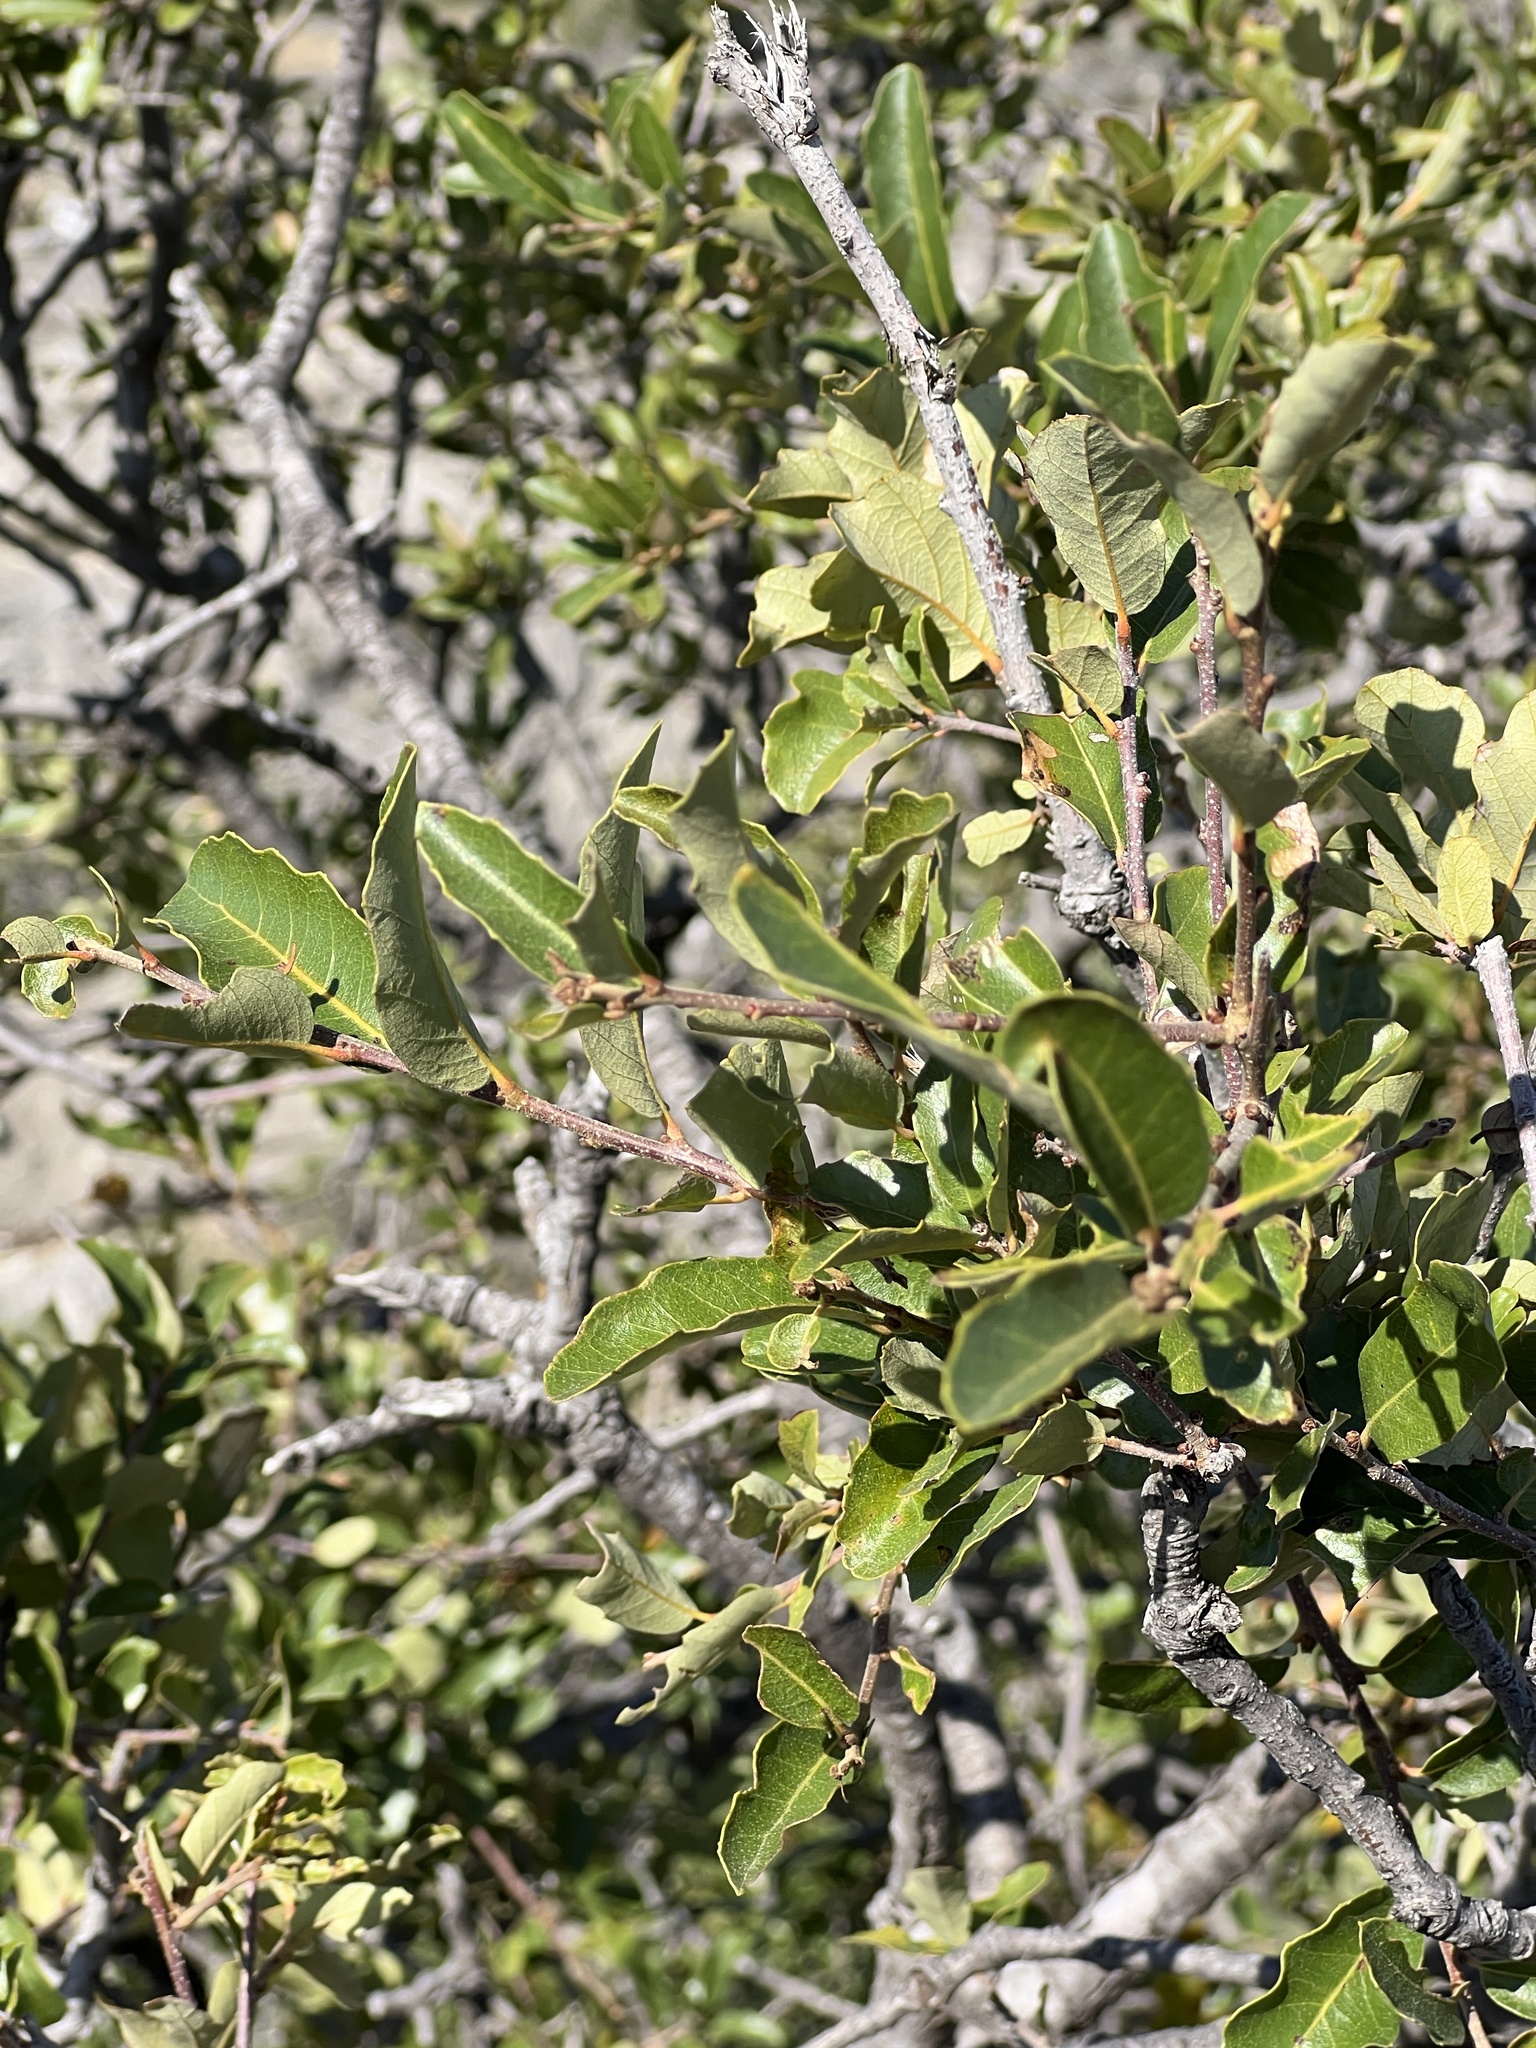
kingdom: Plantae
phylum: Tracheophyta
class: Magnoliopsida
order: Fagales
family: Fagaceae
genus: Quercus
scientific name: Quercus vaseyana
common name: Sandpaper oak
